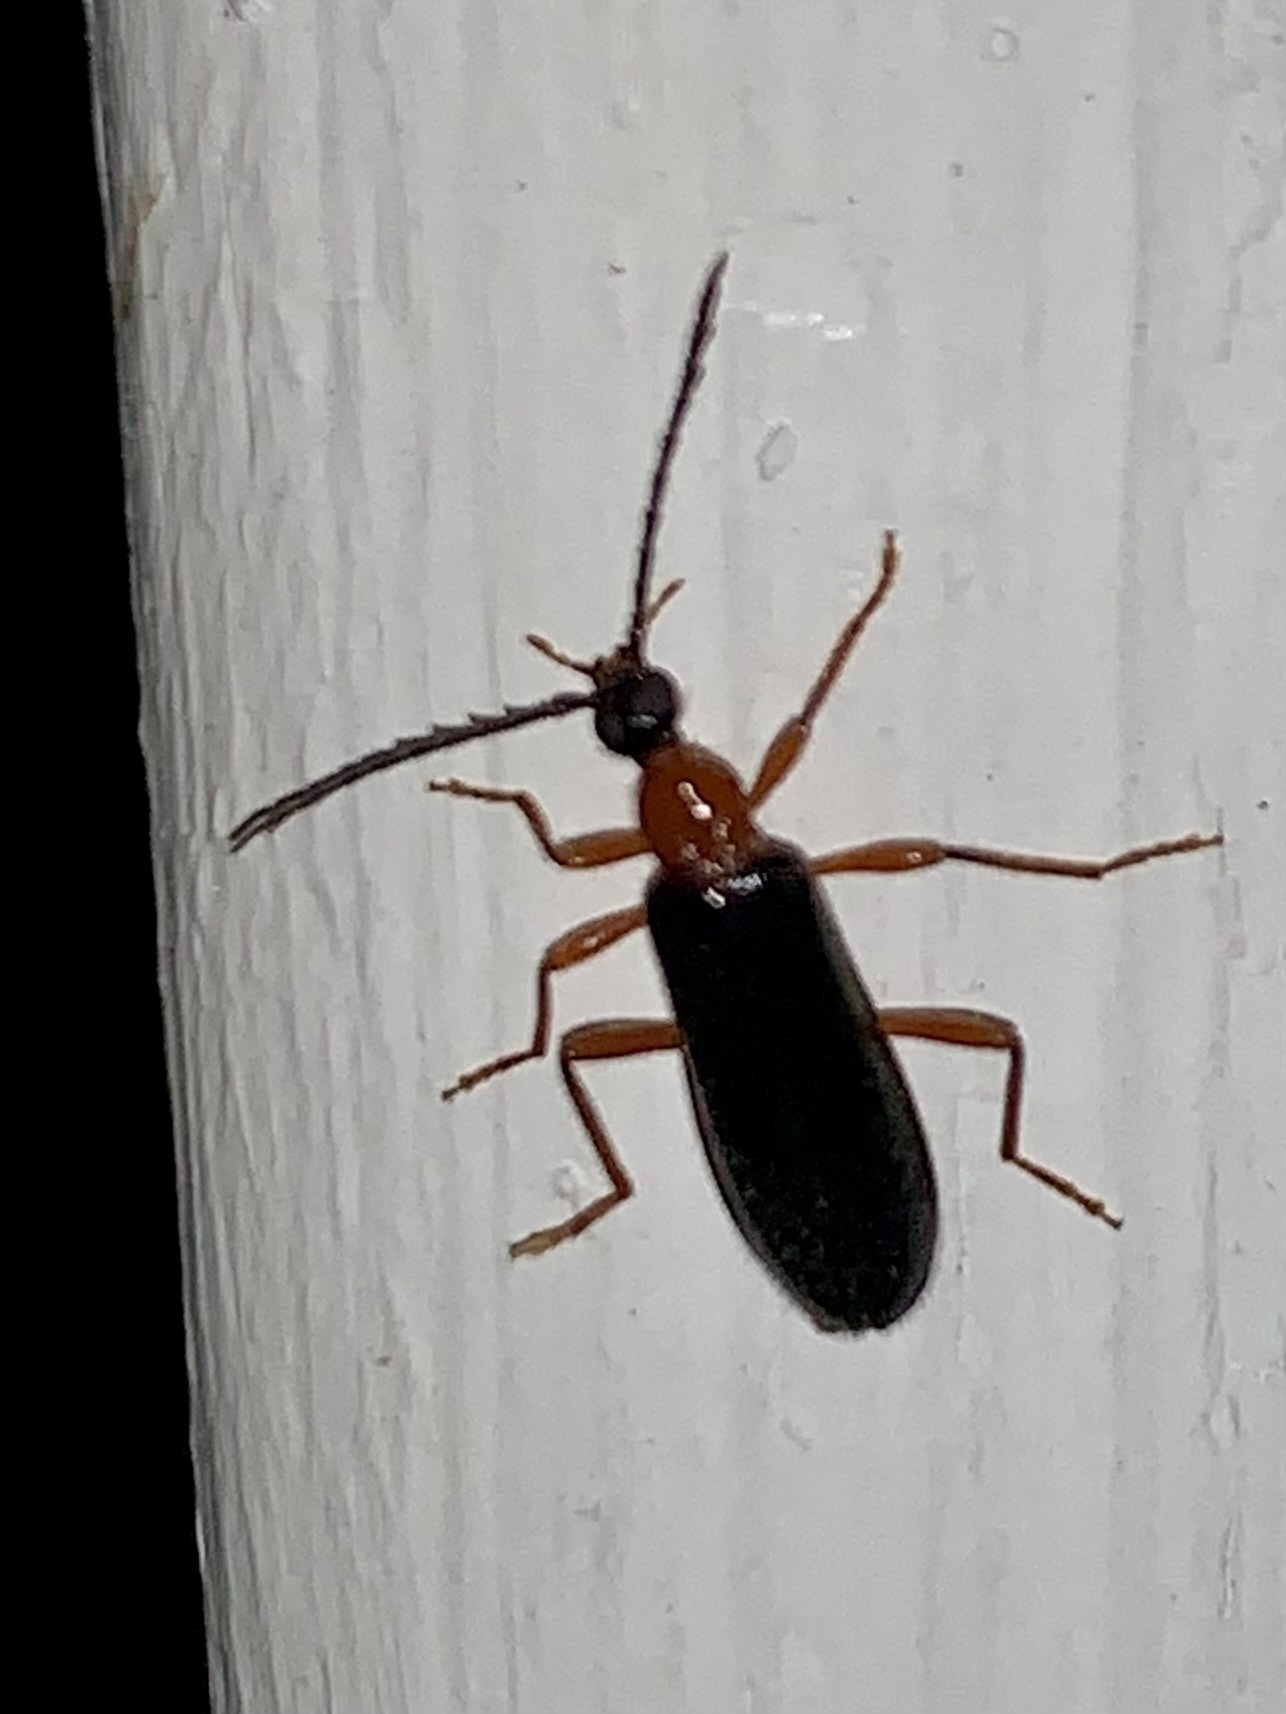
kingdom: Animalia
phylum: Arthropoda
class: Insecta
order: Coleoptera
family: Pyrochroidae
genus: Dendroides
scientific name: Dendroides canadensis
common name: Canada fire-colored beetle
